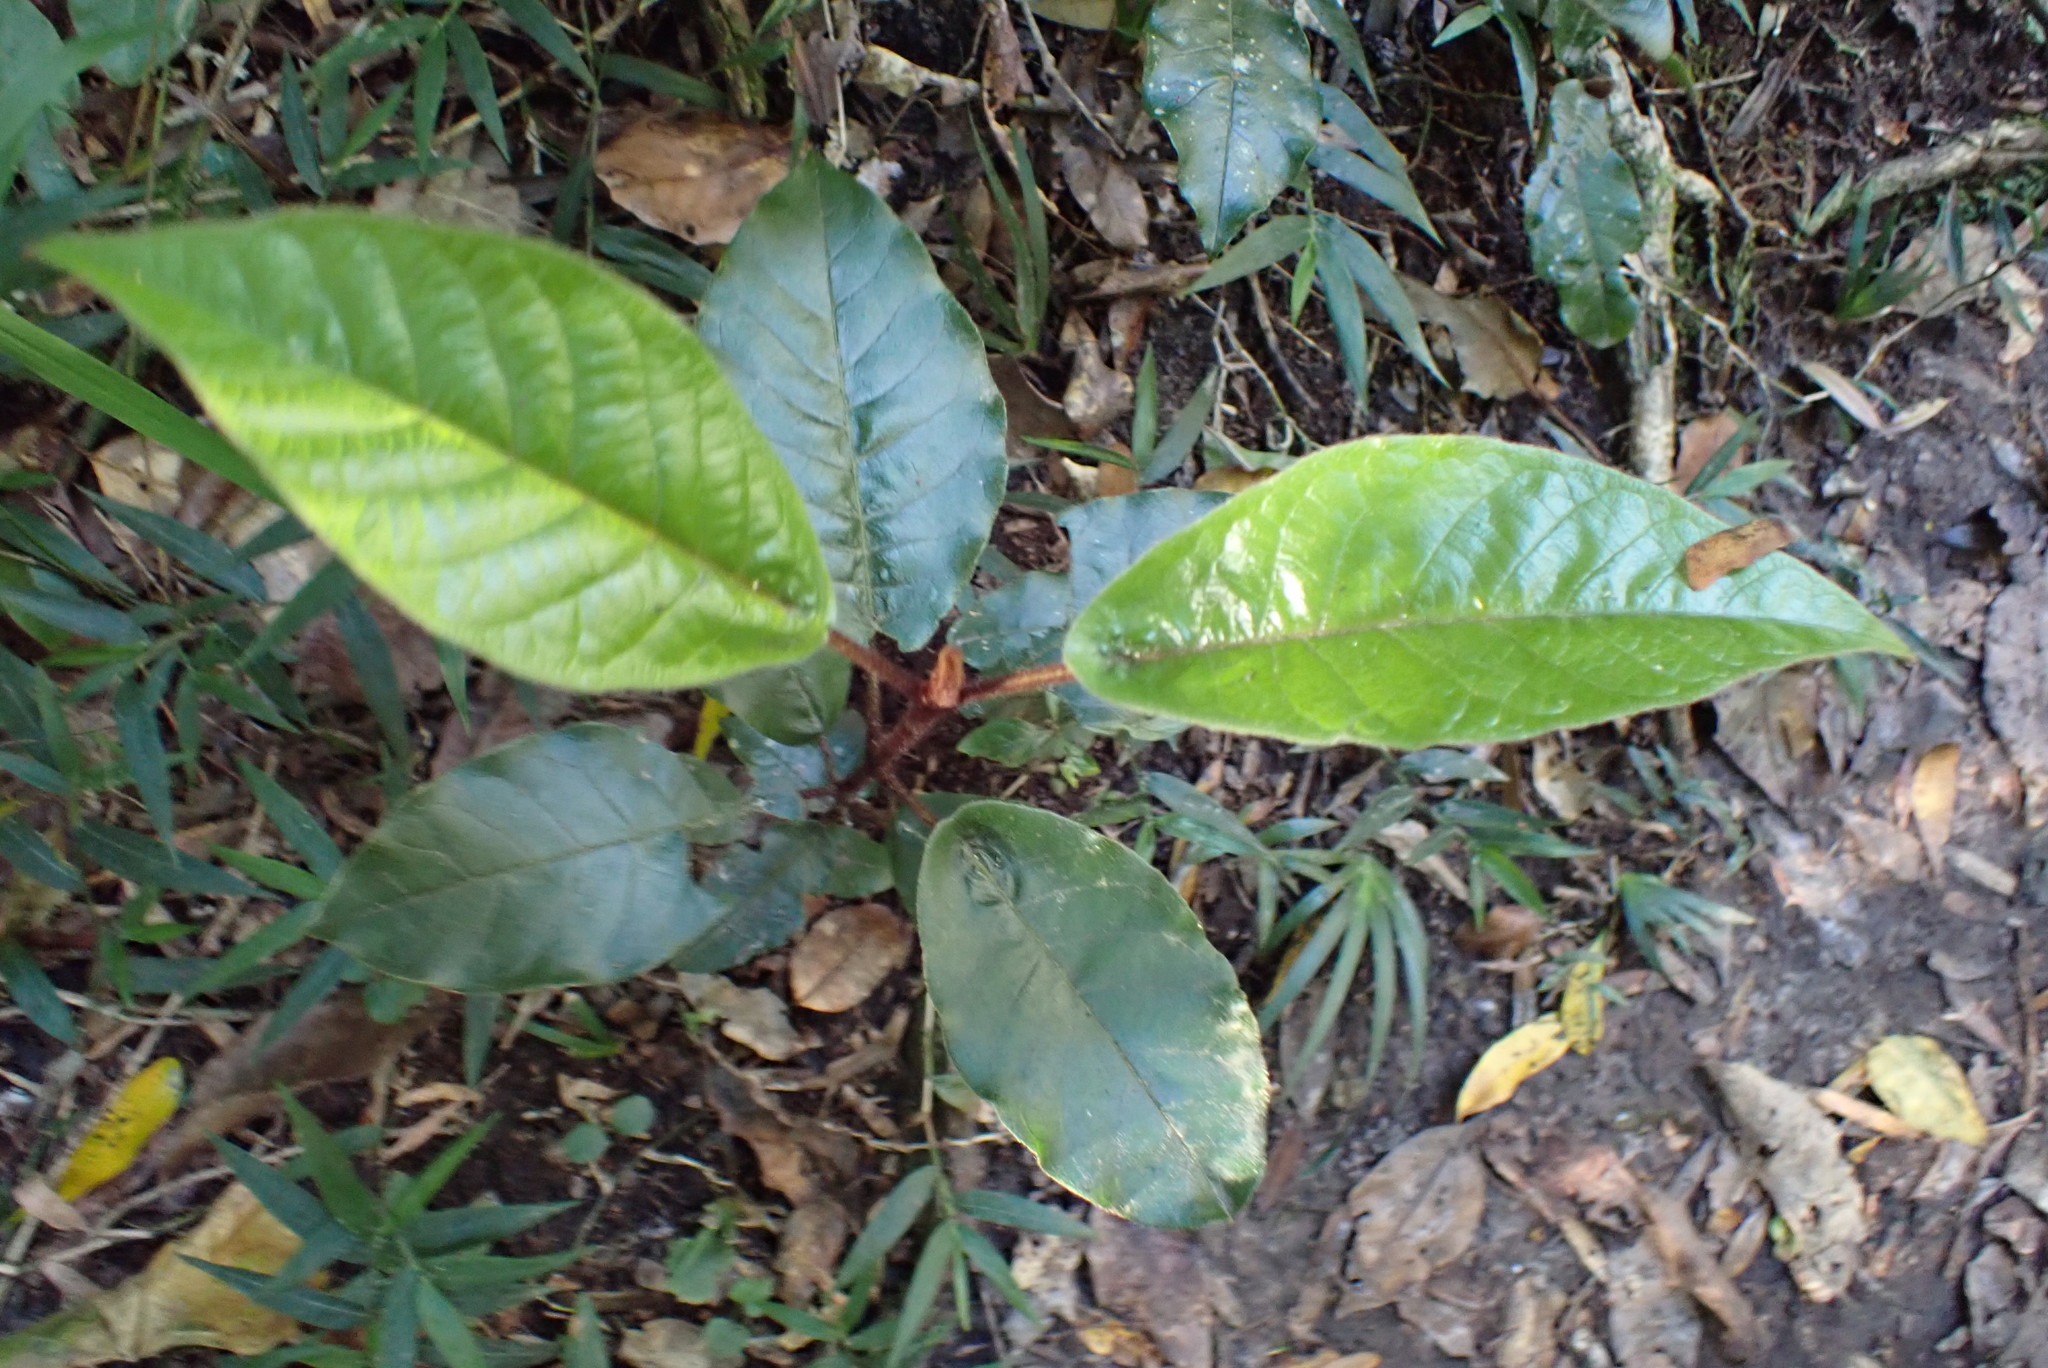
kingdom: Plantae
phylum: Tracheophyta
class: Magnoliopsida
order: Saxifragales
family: Hamamelidaceae
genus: Trichocladus
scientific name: Trichocladus crinitus
